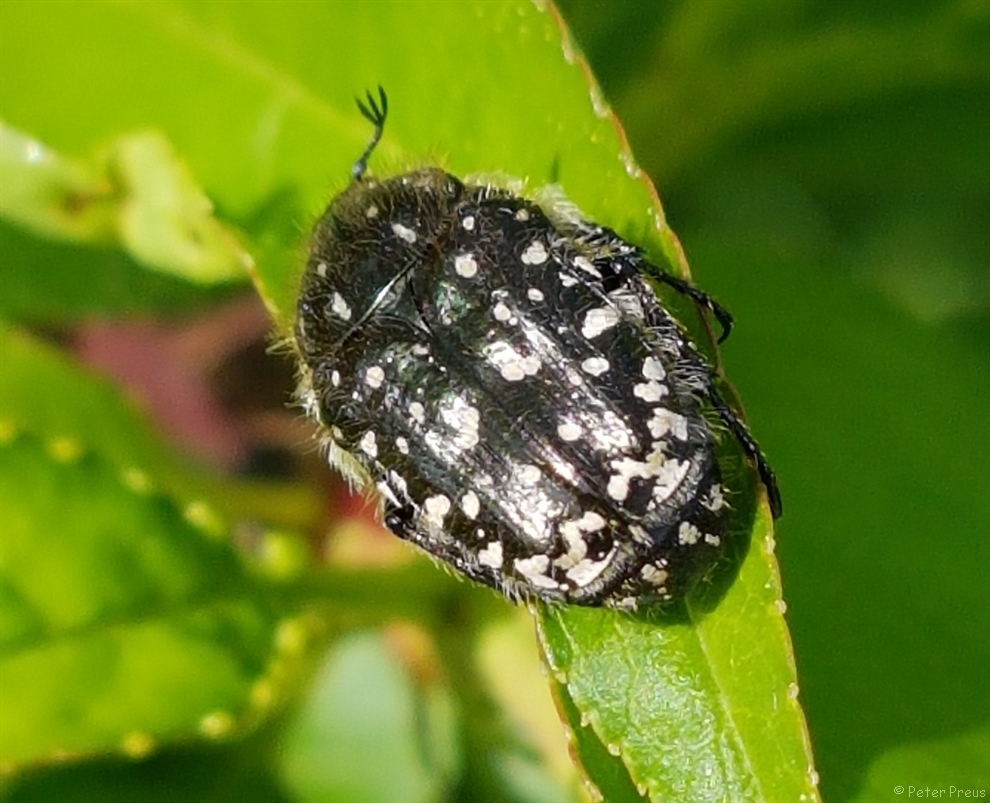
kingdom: Animalia
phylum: Arthropoda
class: Insecta
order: Coleoptera
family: Scarabaeidae
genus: Oxythyrea
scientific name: Oxythyrea funesta
